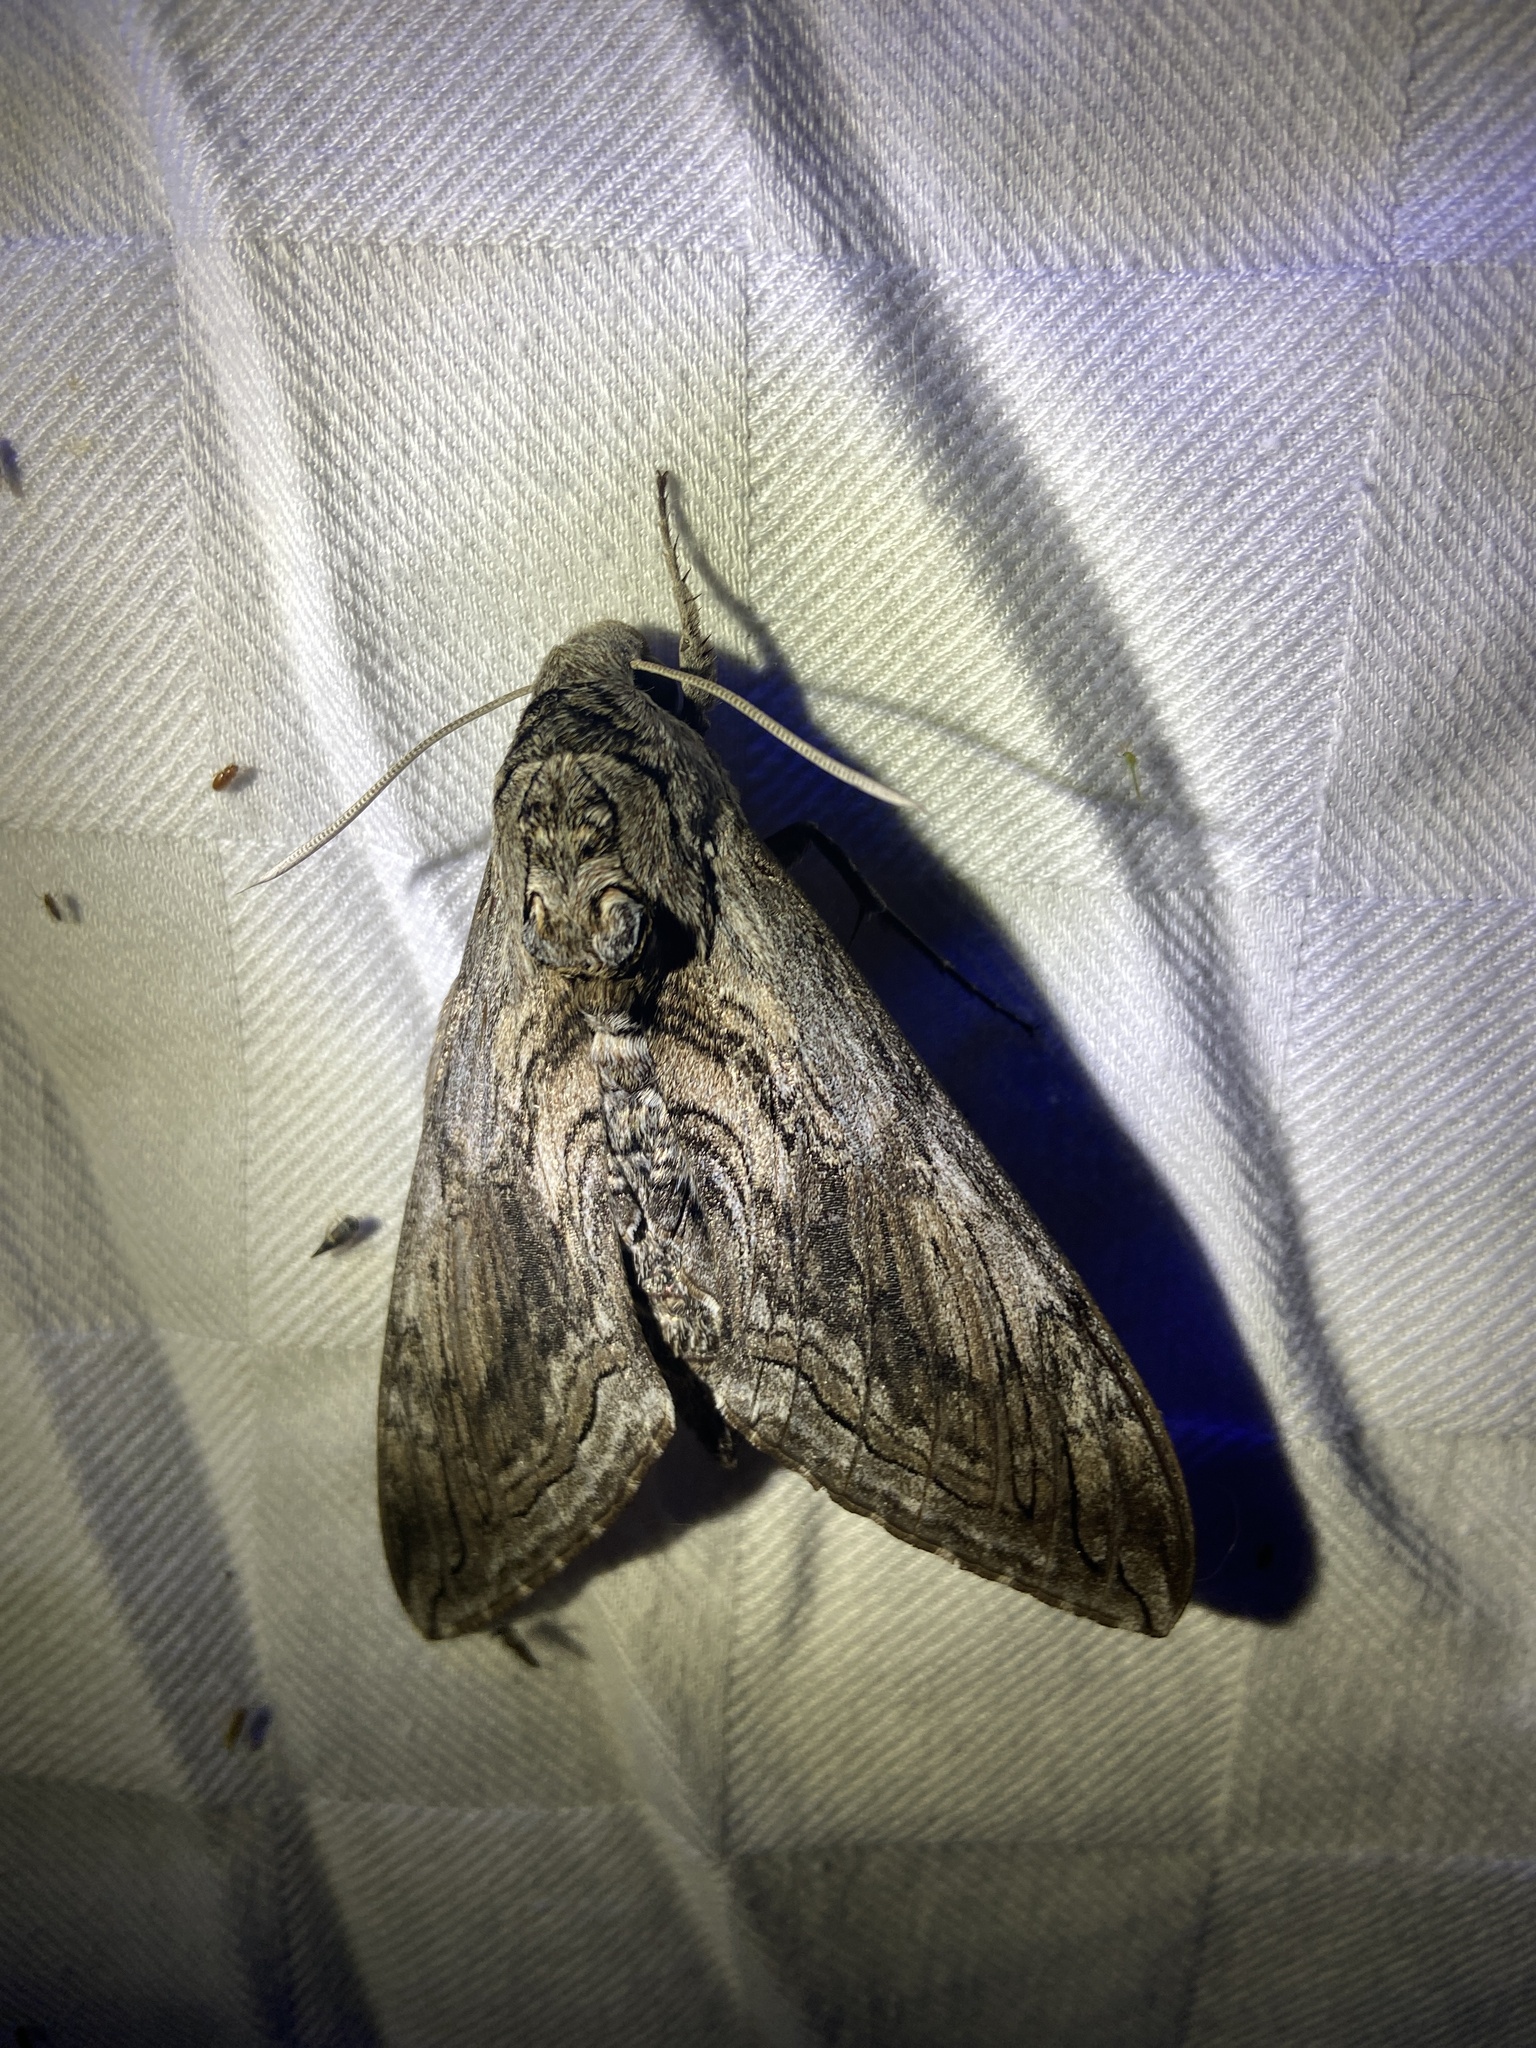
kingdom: Animalia
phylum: Arthropoda
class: Insecta
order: Lepidoptera
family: Sphingidae
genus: Manduca
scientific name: Manduca quinquemaculatus
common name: Five-spotted hawk-moth
